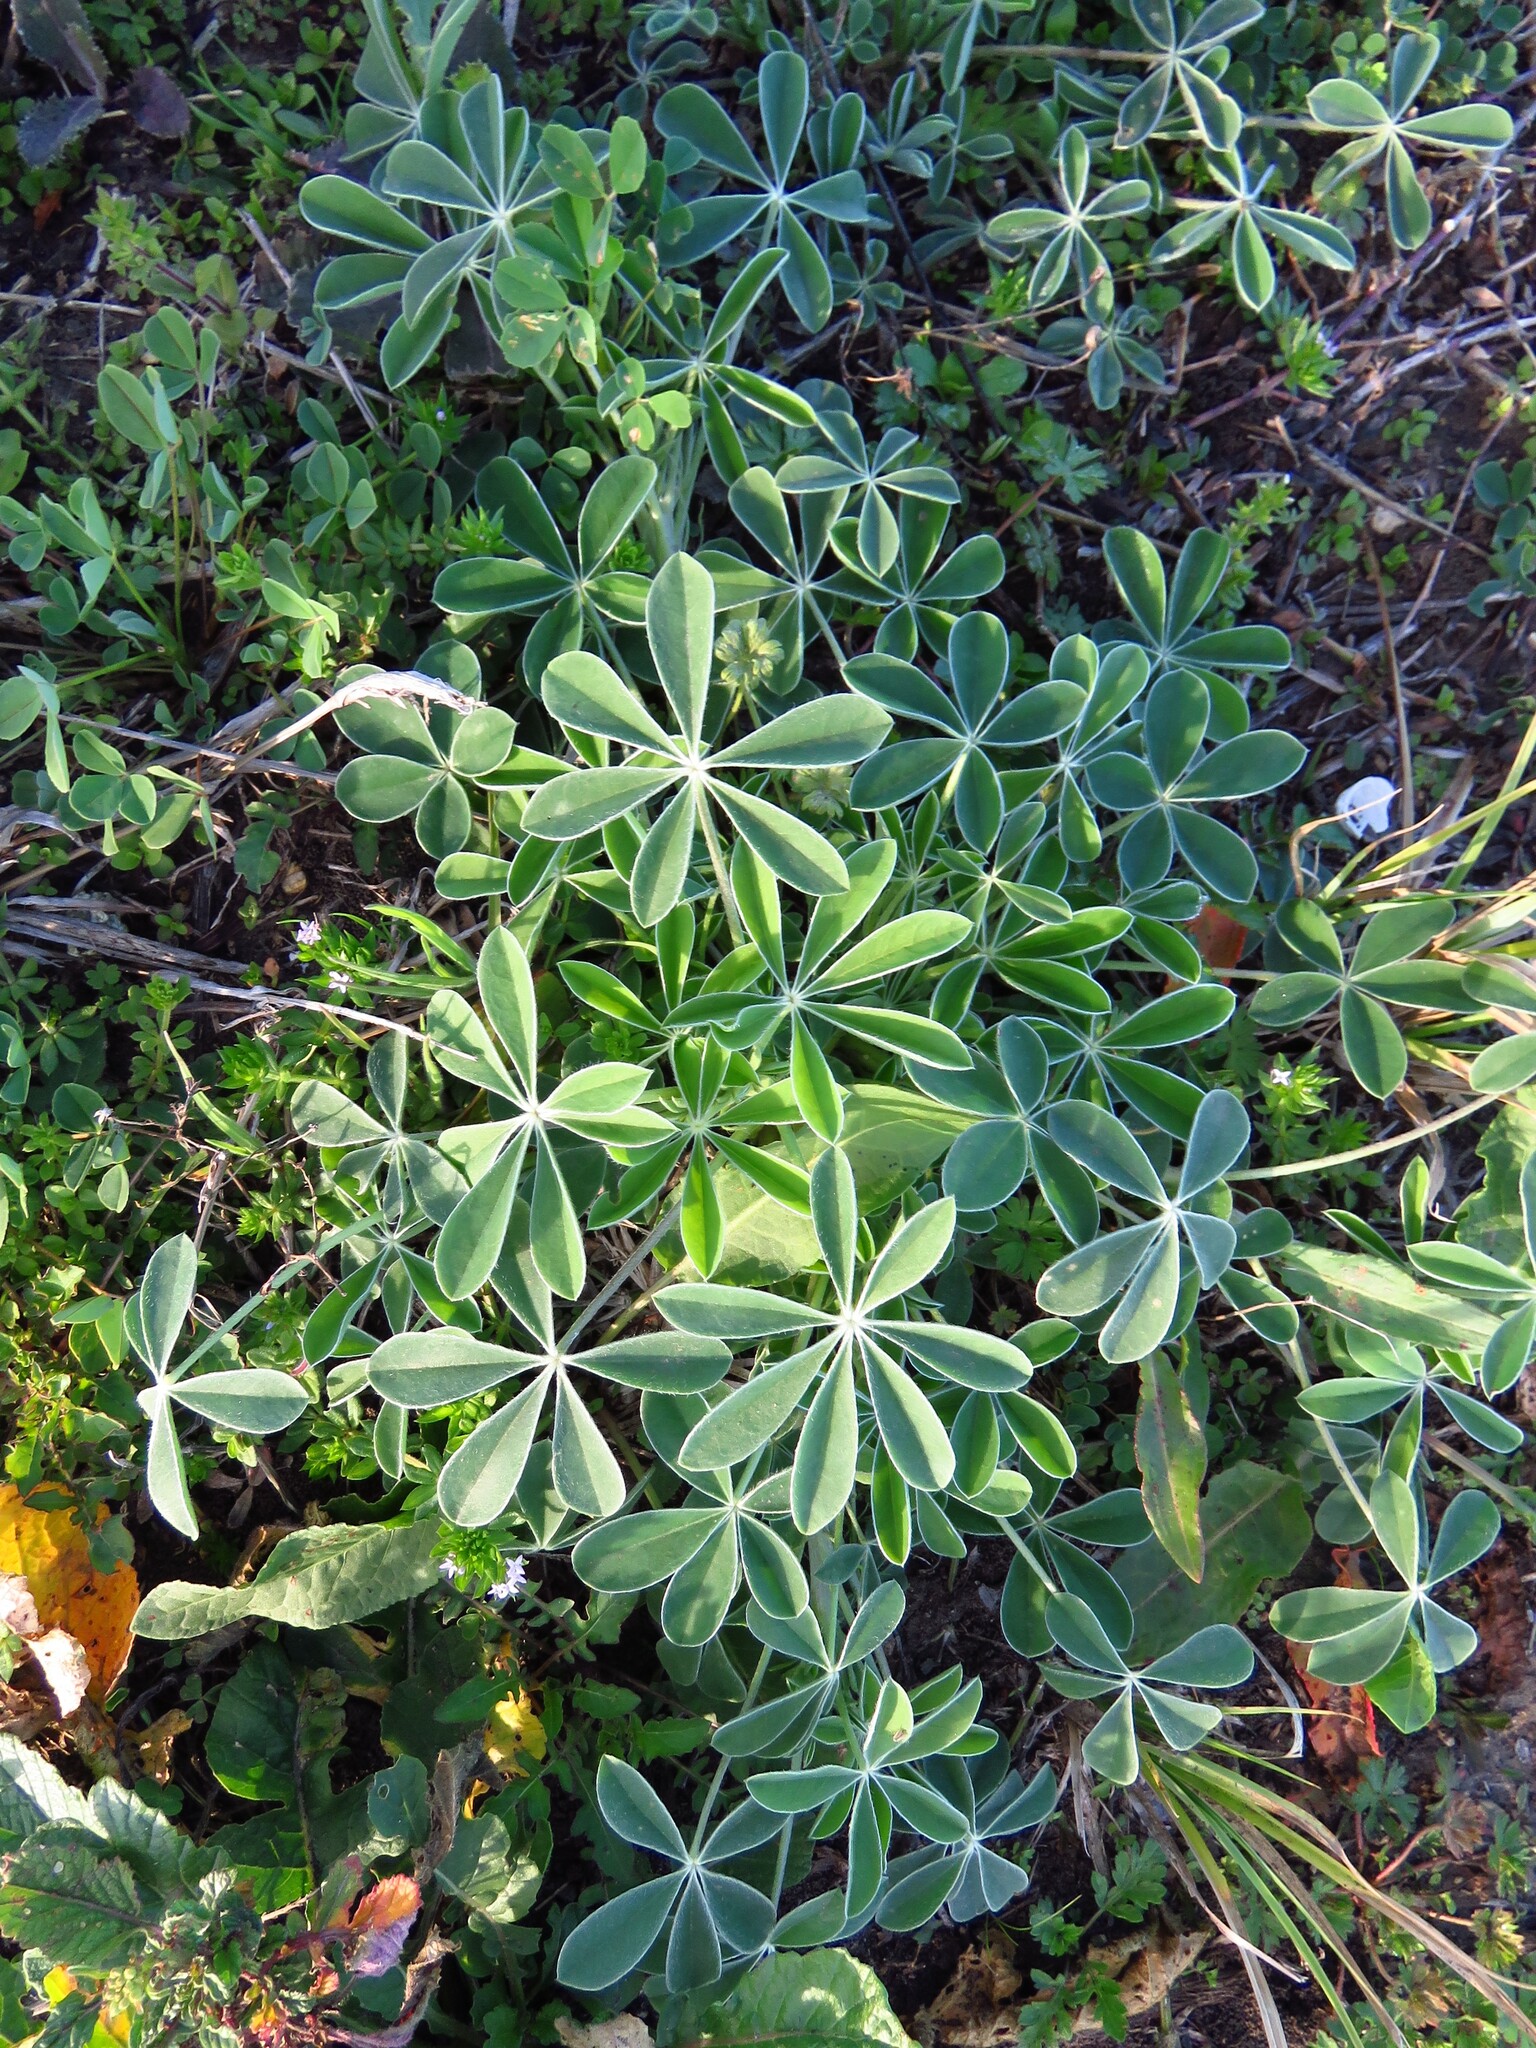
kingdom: Plantae
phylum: Tracheophyta
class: Magnoliopsida
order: Fabales
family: Fabaceae
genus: Lupinus
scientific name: Lupinus texensis
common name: Texas bluebonnet
